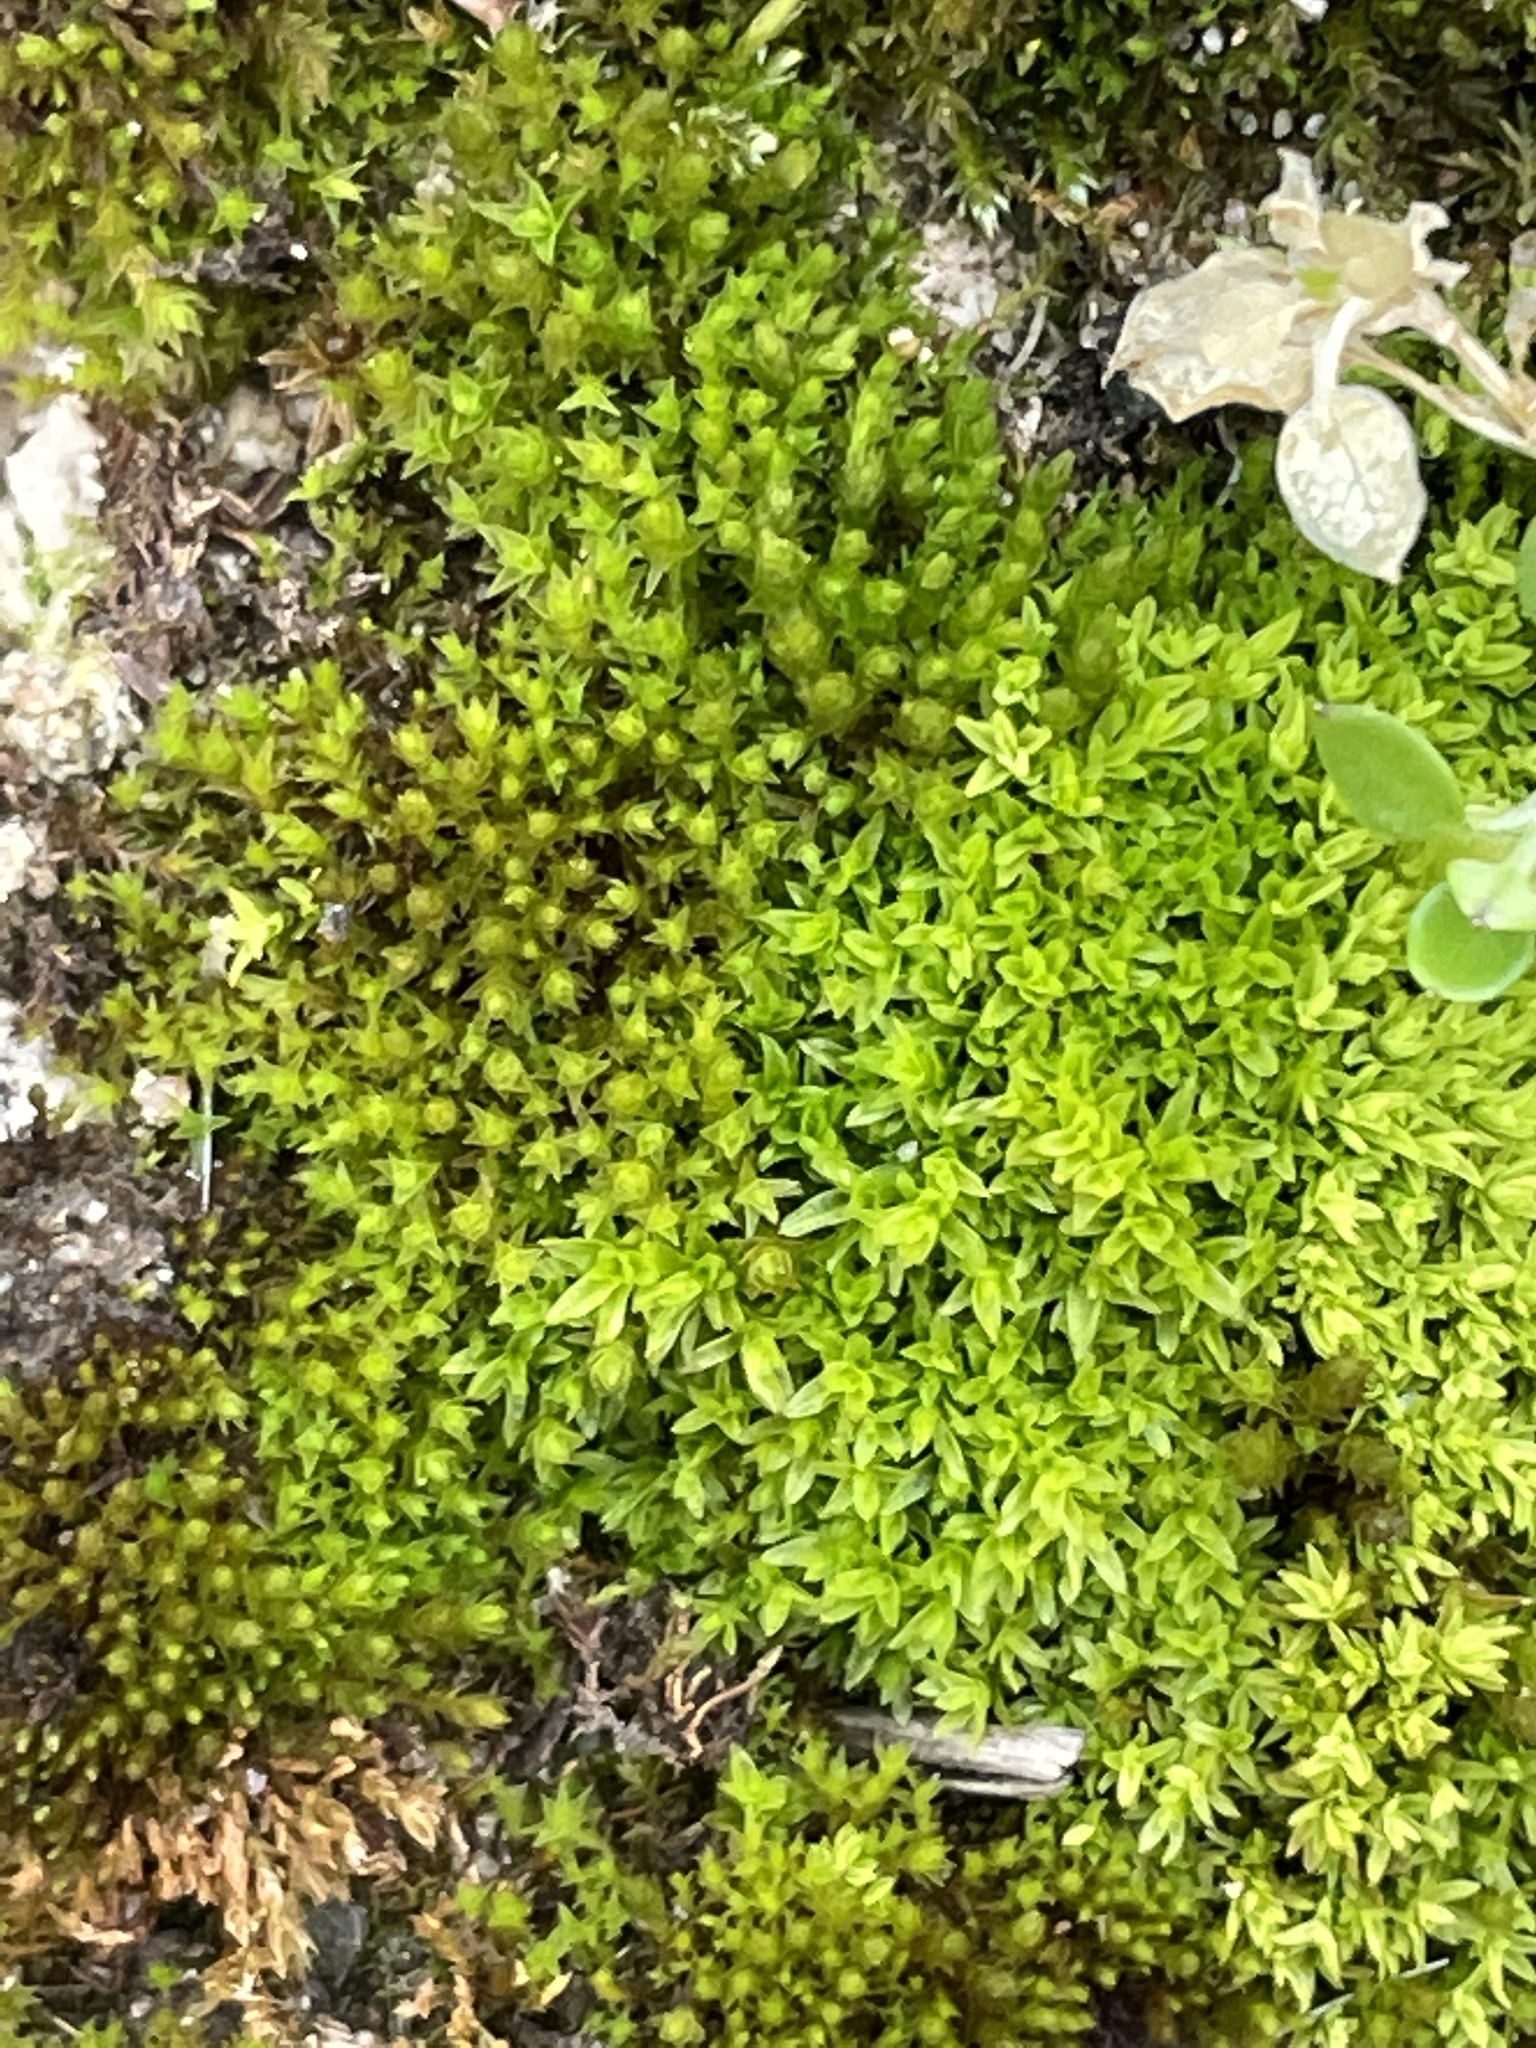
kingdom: Plantae
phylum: Bryophyta
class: Bryopsida
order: Pottiales
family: Pottiaceae
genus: Geheebia
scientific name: Geheebia lurida
